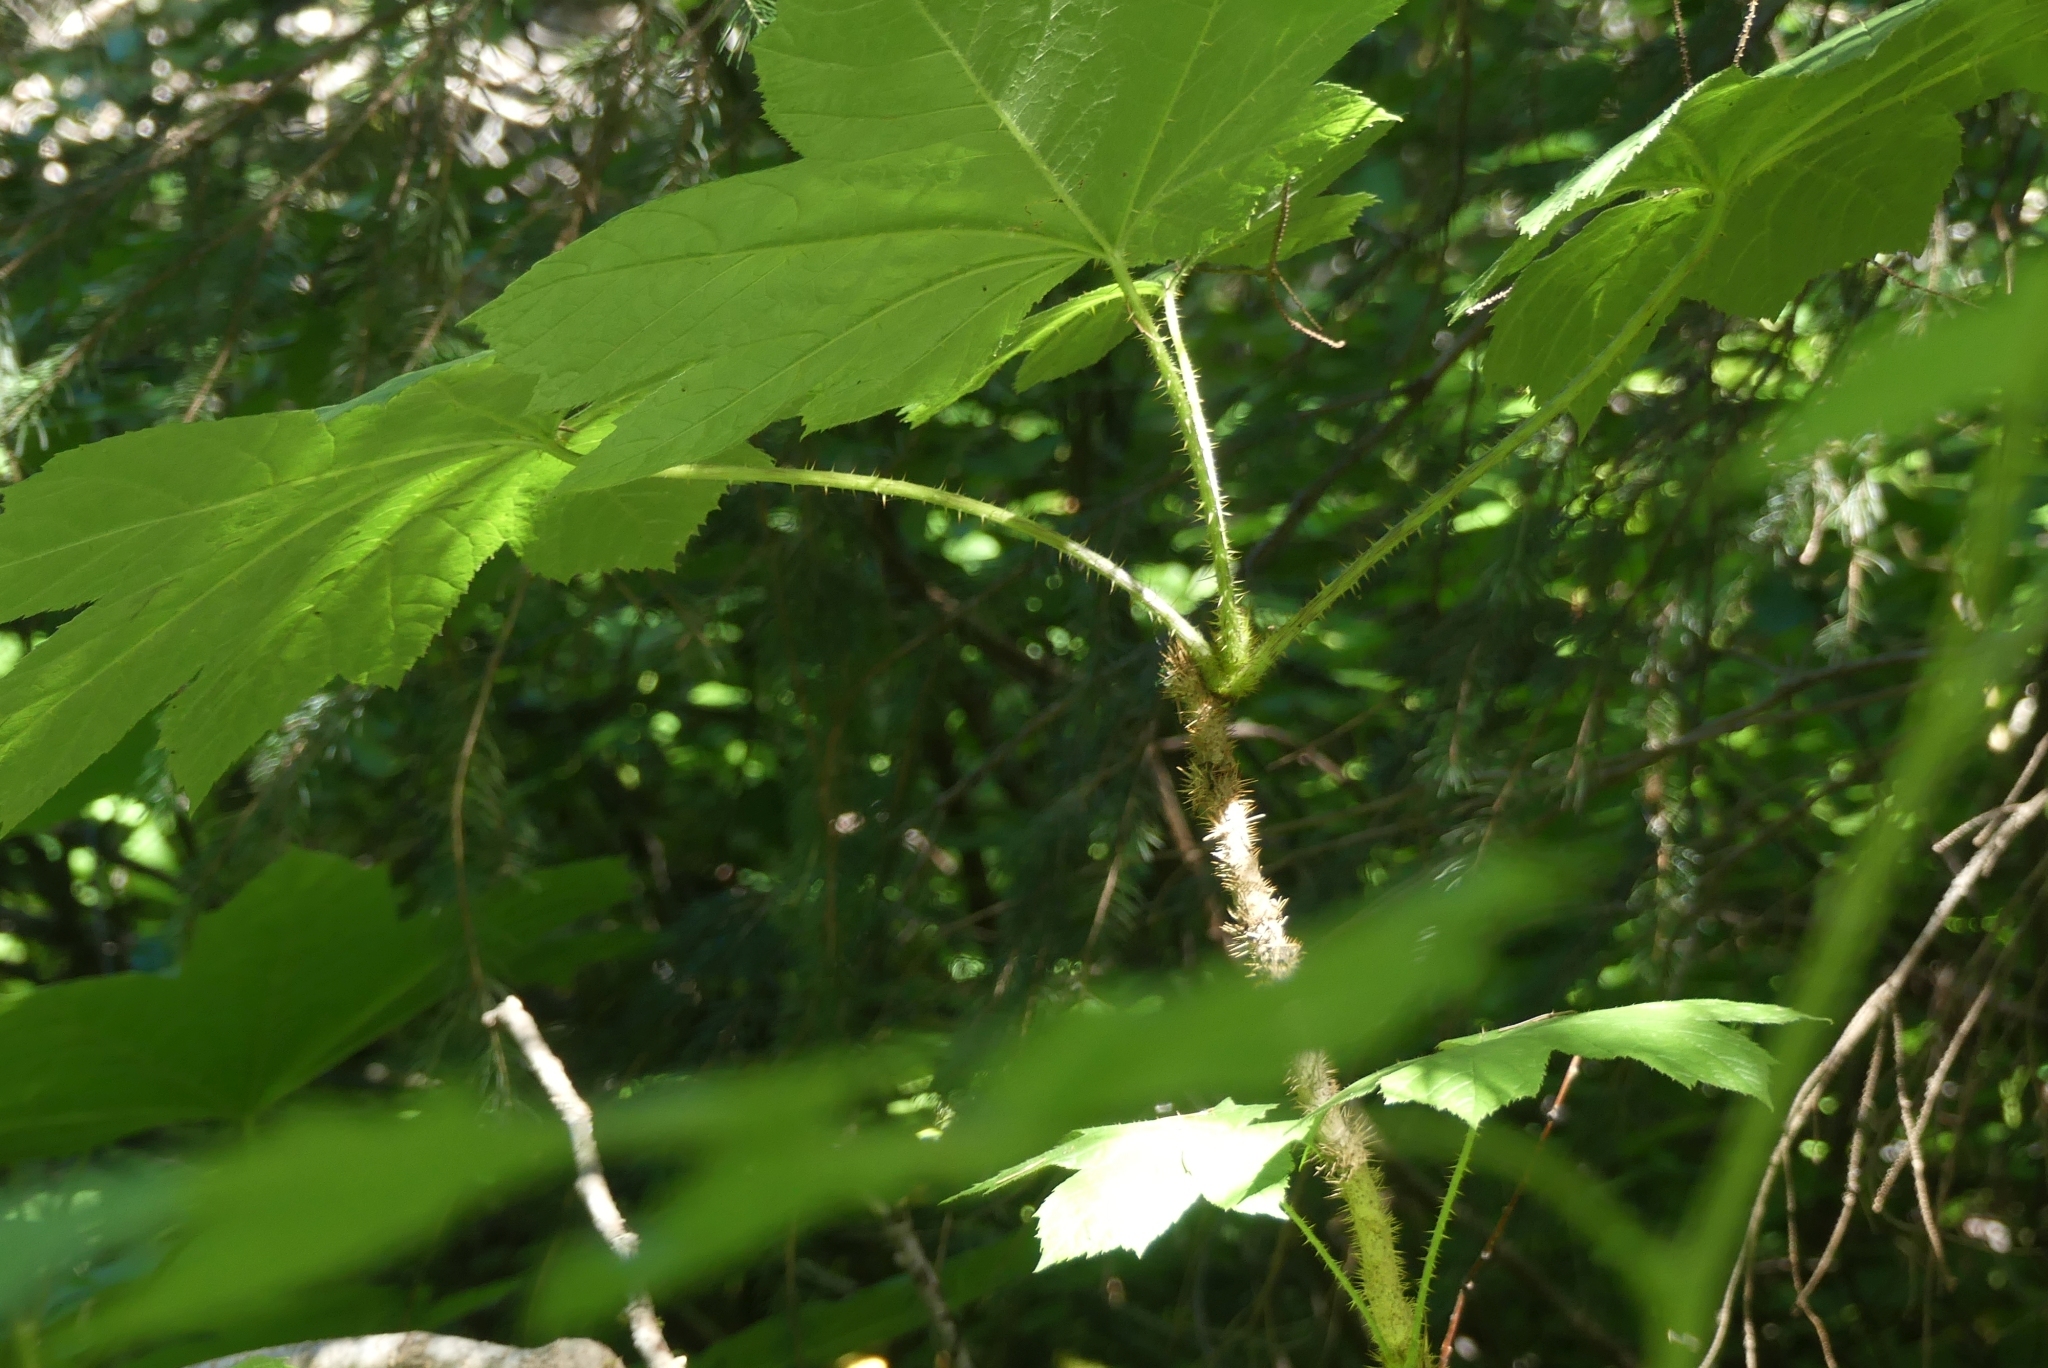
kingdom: Plantae
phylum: Tracheophyta
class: Magnoliopsida
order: Apiales
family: Araliaceae
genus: Oplopanax
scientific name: Oplopanax horridus
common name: Devil's walking-stick
